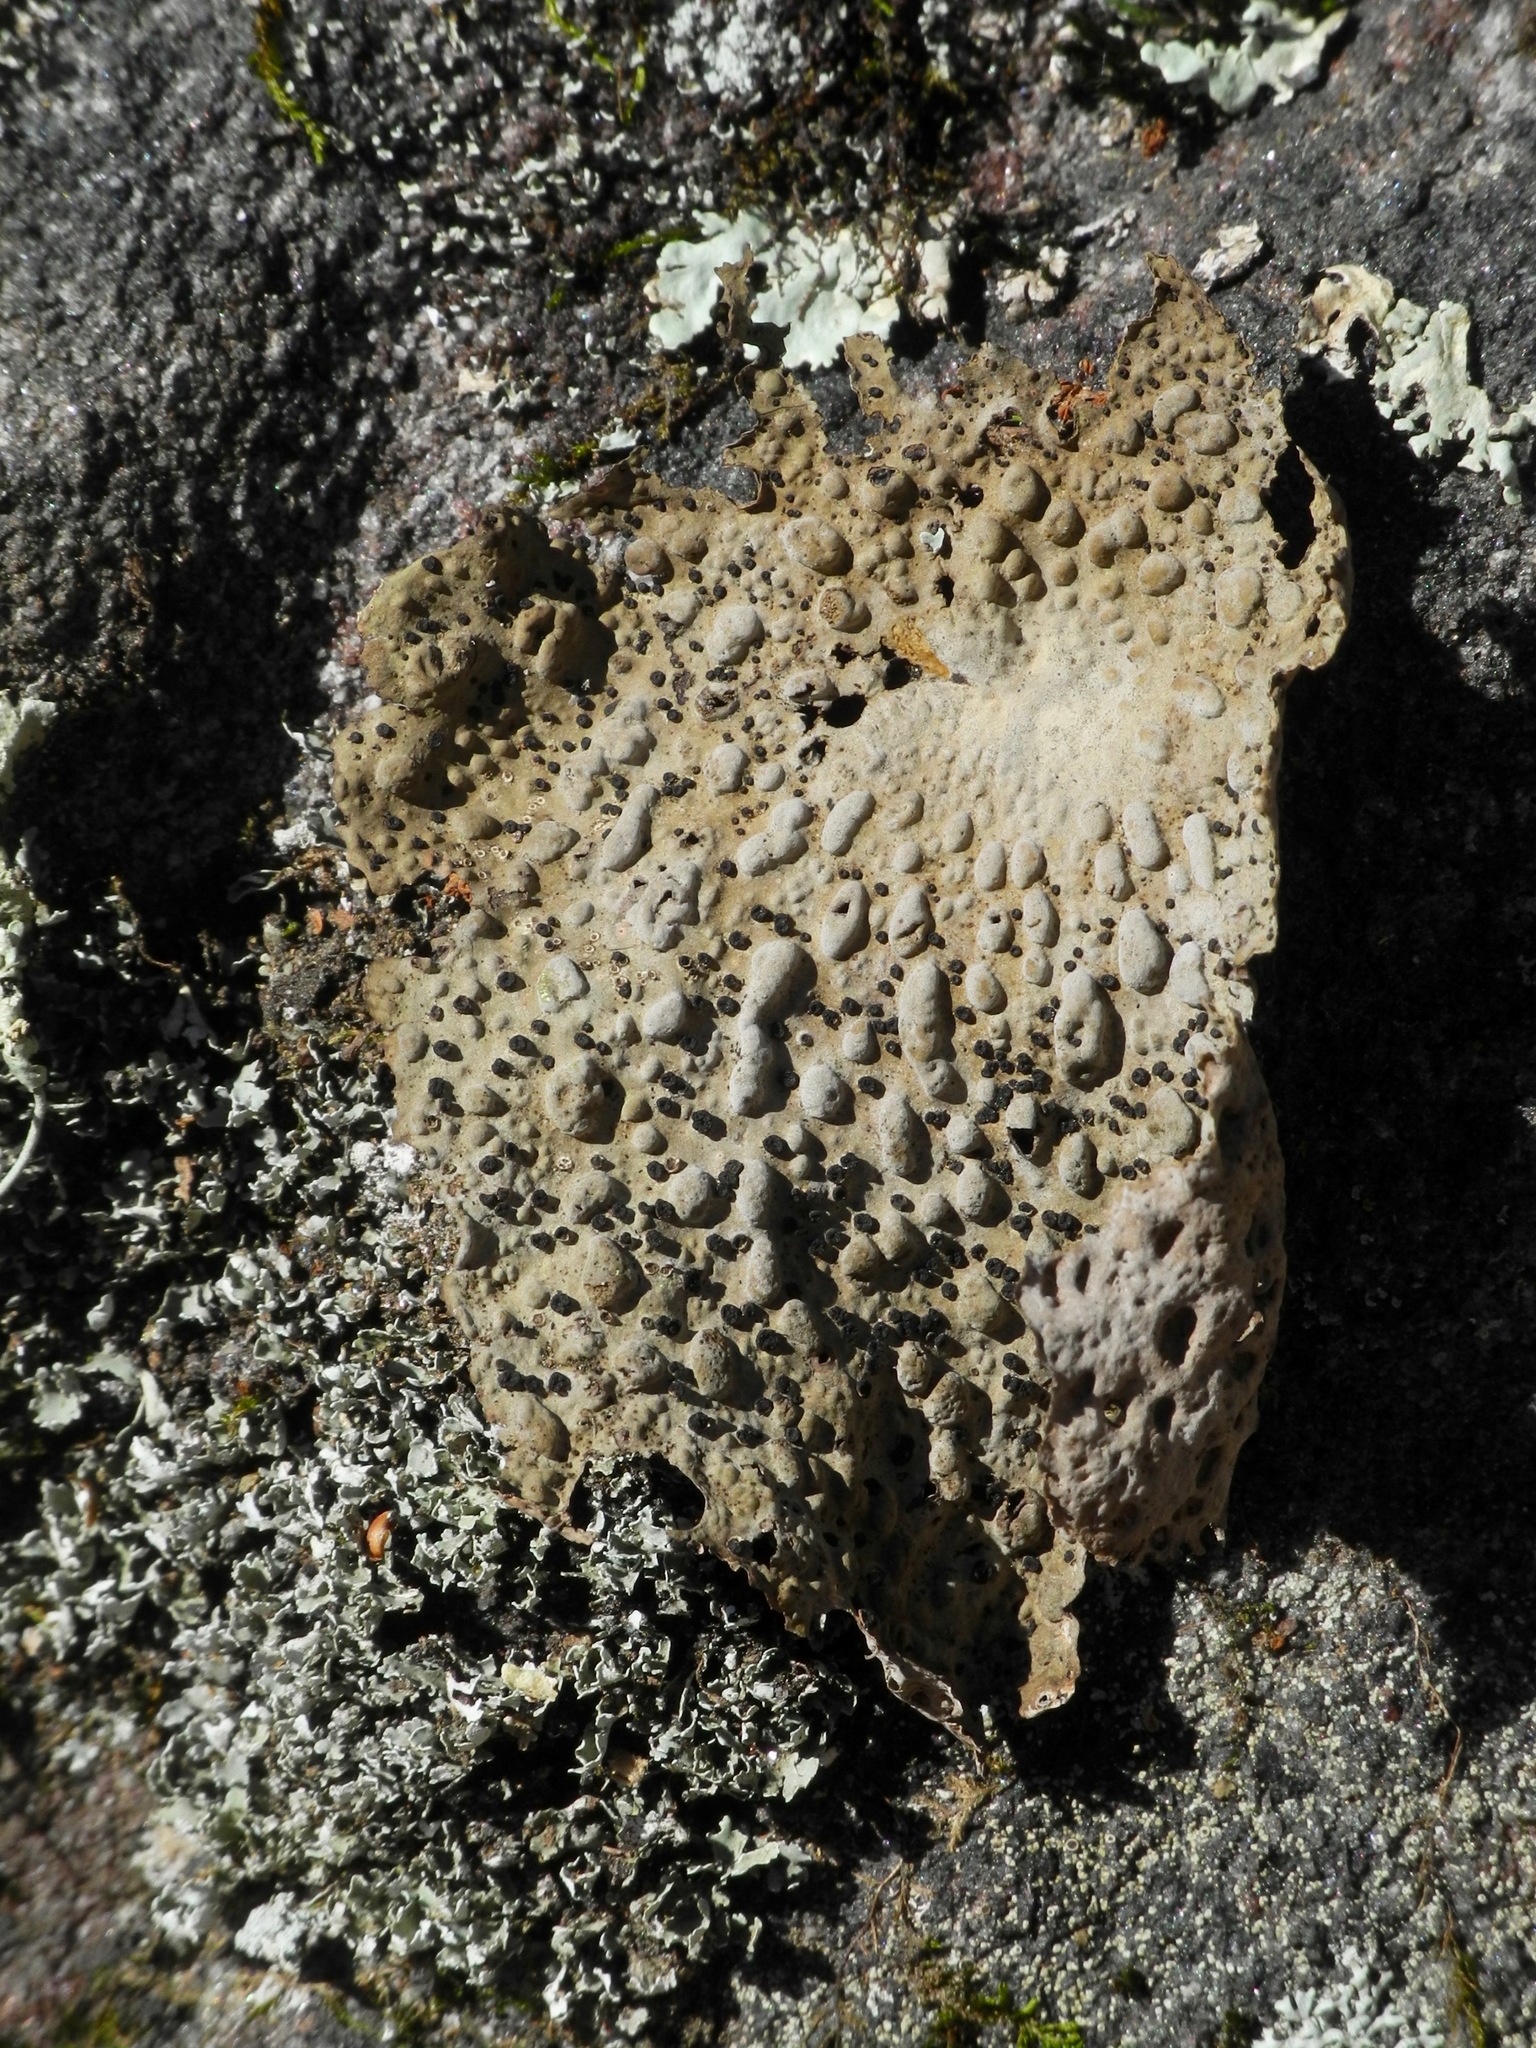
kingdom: Fungi
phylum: Ascomycota
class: Lecanoromycetes
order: Umbilicariales
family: Umbilicariaceae
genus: Lasallia
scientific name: Lasallia papulosa
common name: Common toadskin lichen
